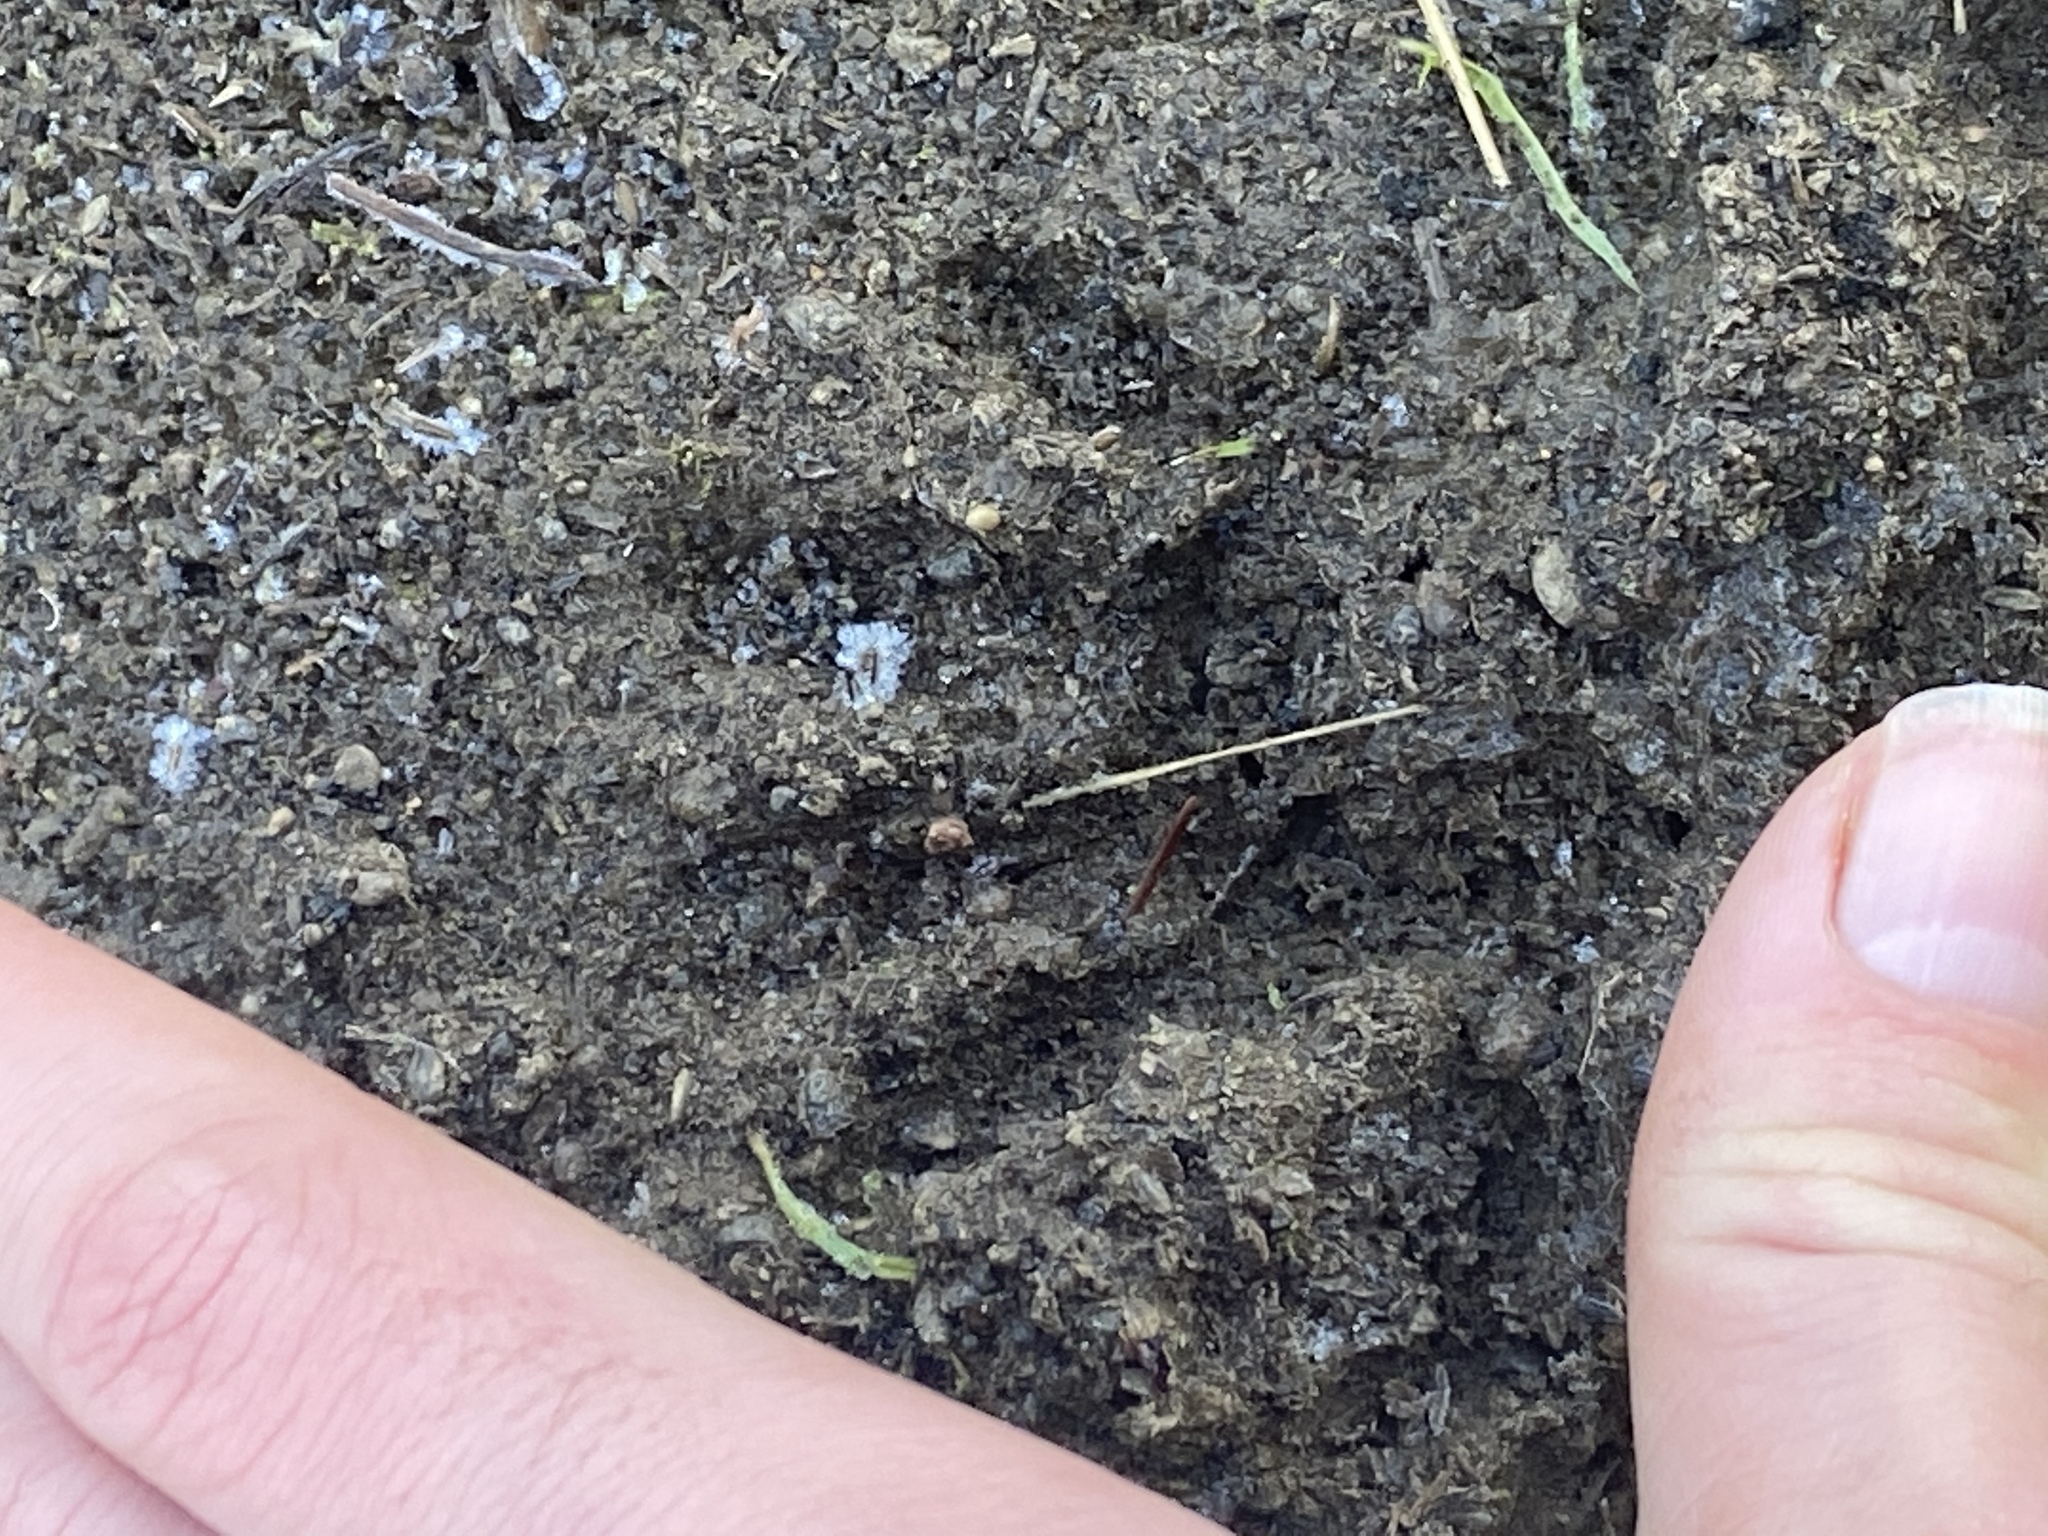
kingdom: Animalia
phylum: Chordata
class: Mammalia
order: Carnivora
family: Procyonidae
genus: Procyon
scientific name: Procyon lotor
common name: Raccoon
